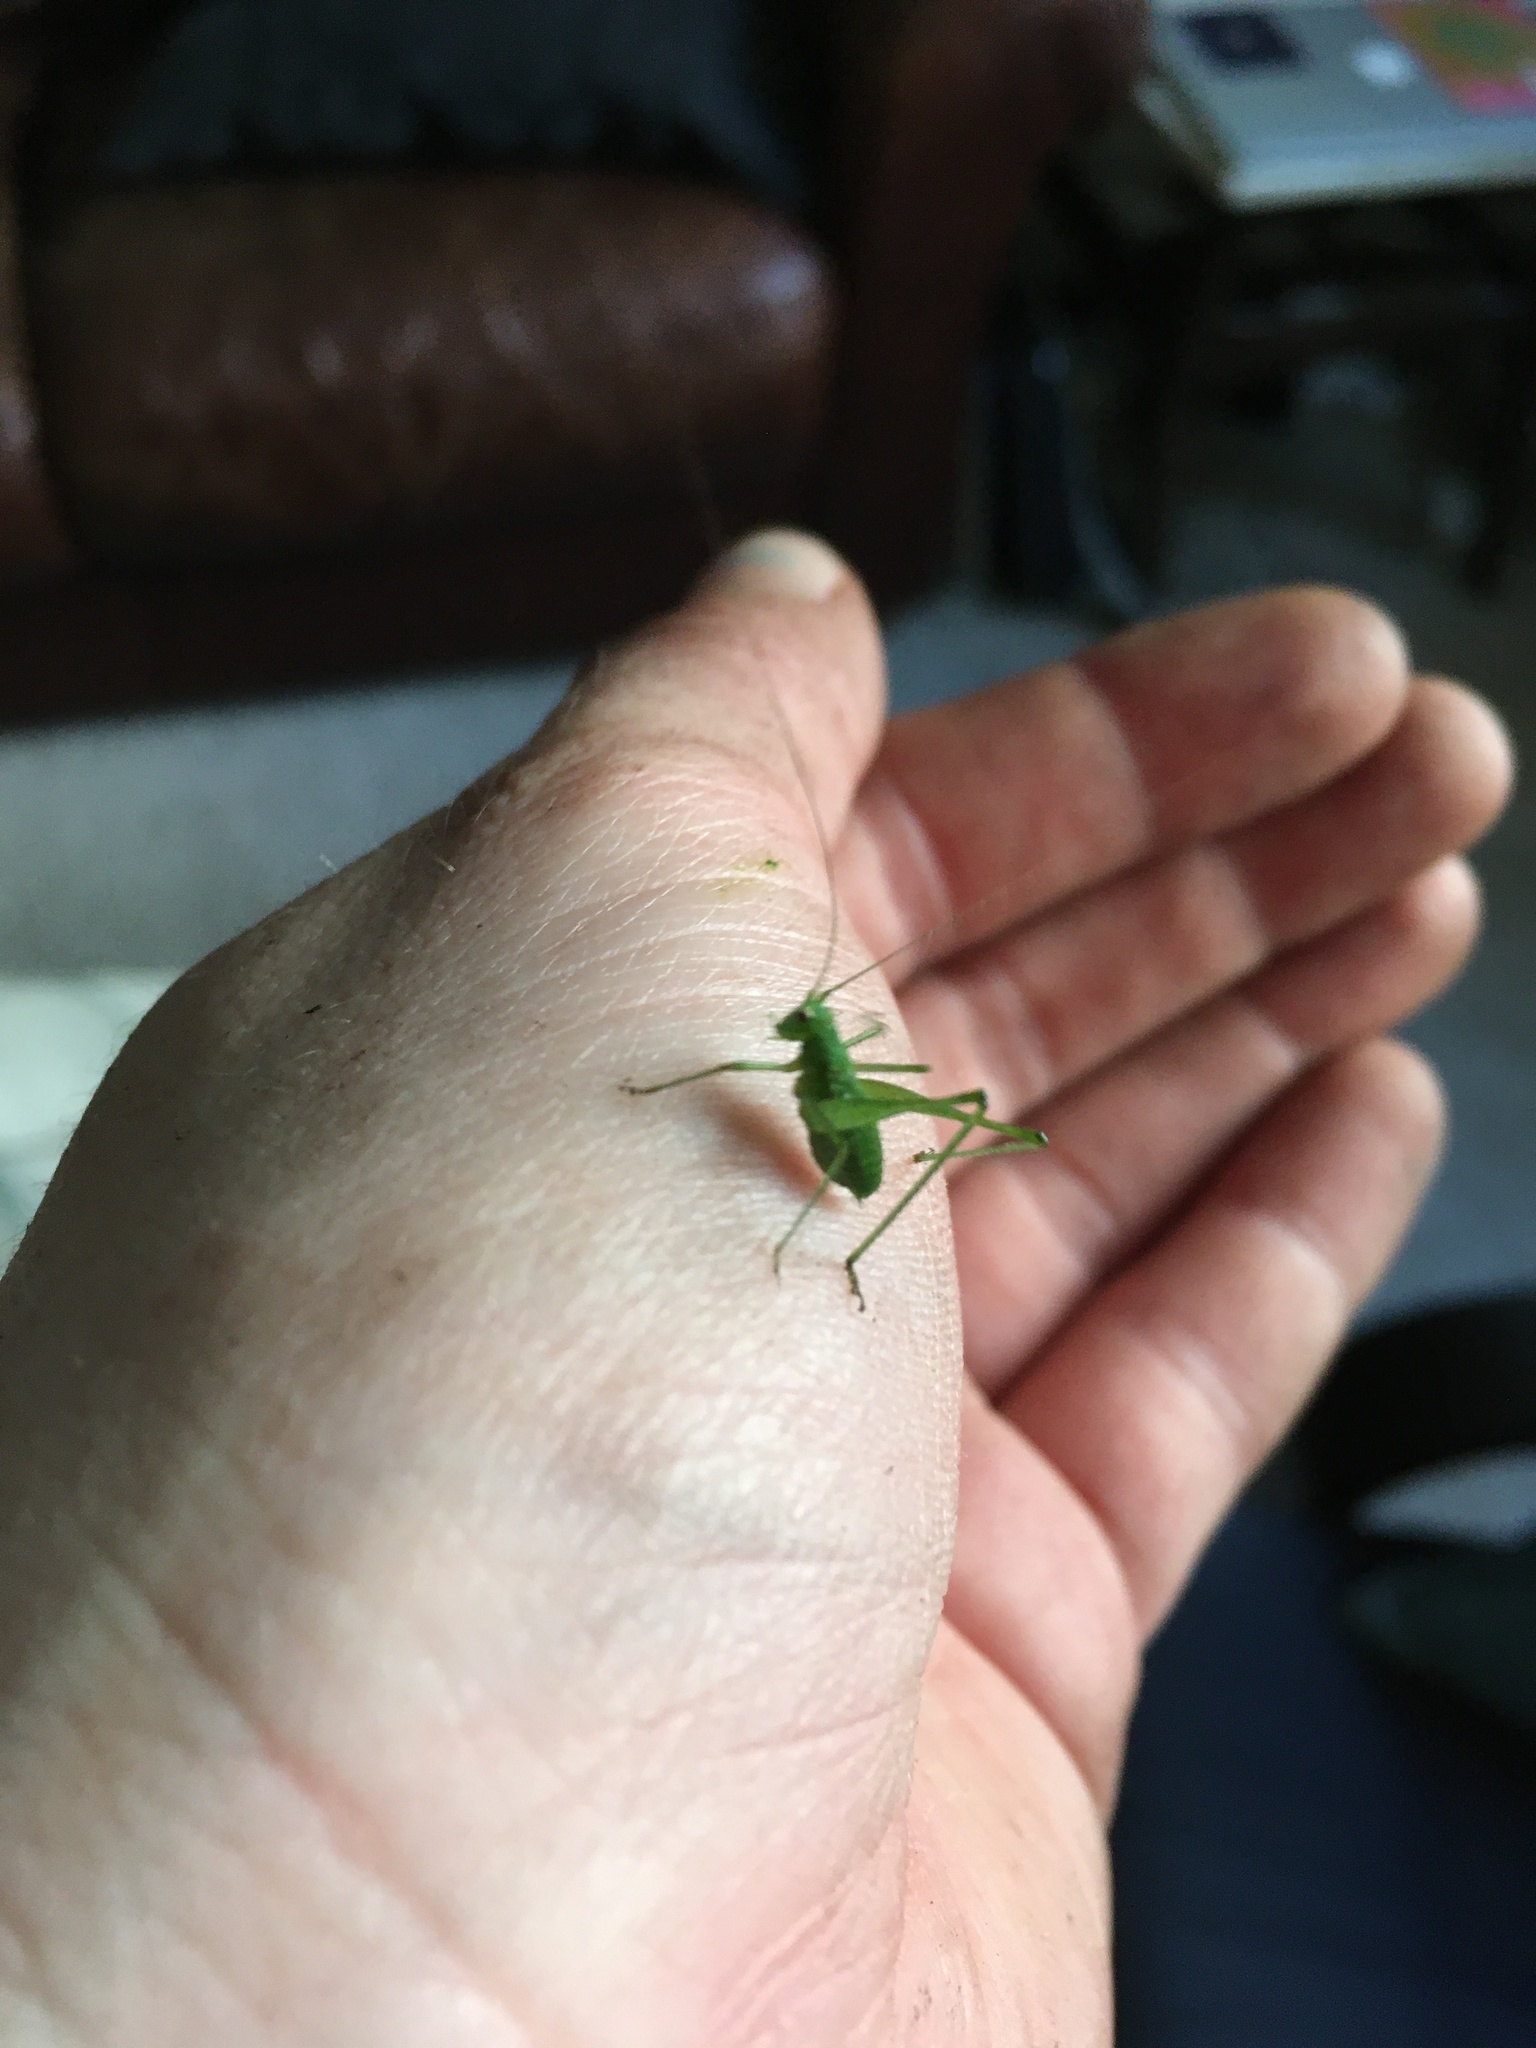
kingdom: Animalia
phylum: Arthropoda
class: Insecta
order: Orthoptera
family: Tettigoniidae
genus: Phaneroptera
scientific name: Phaneroptera nana
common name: Southern sickle bush-cricket
